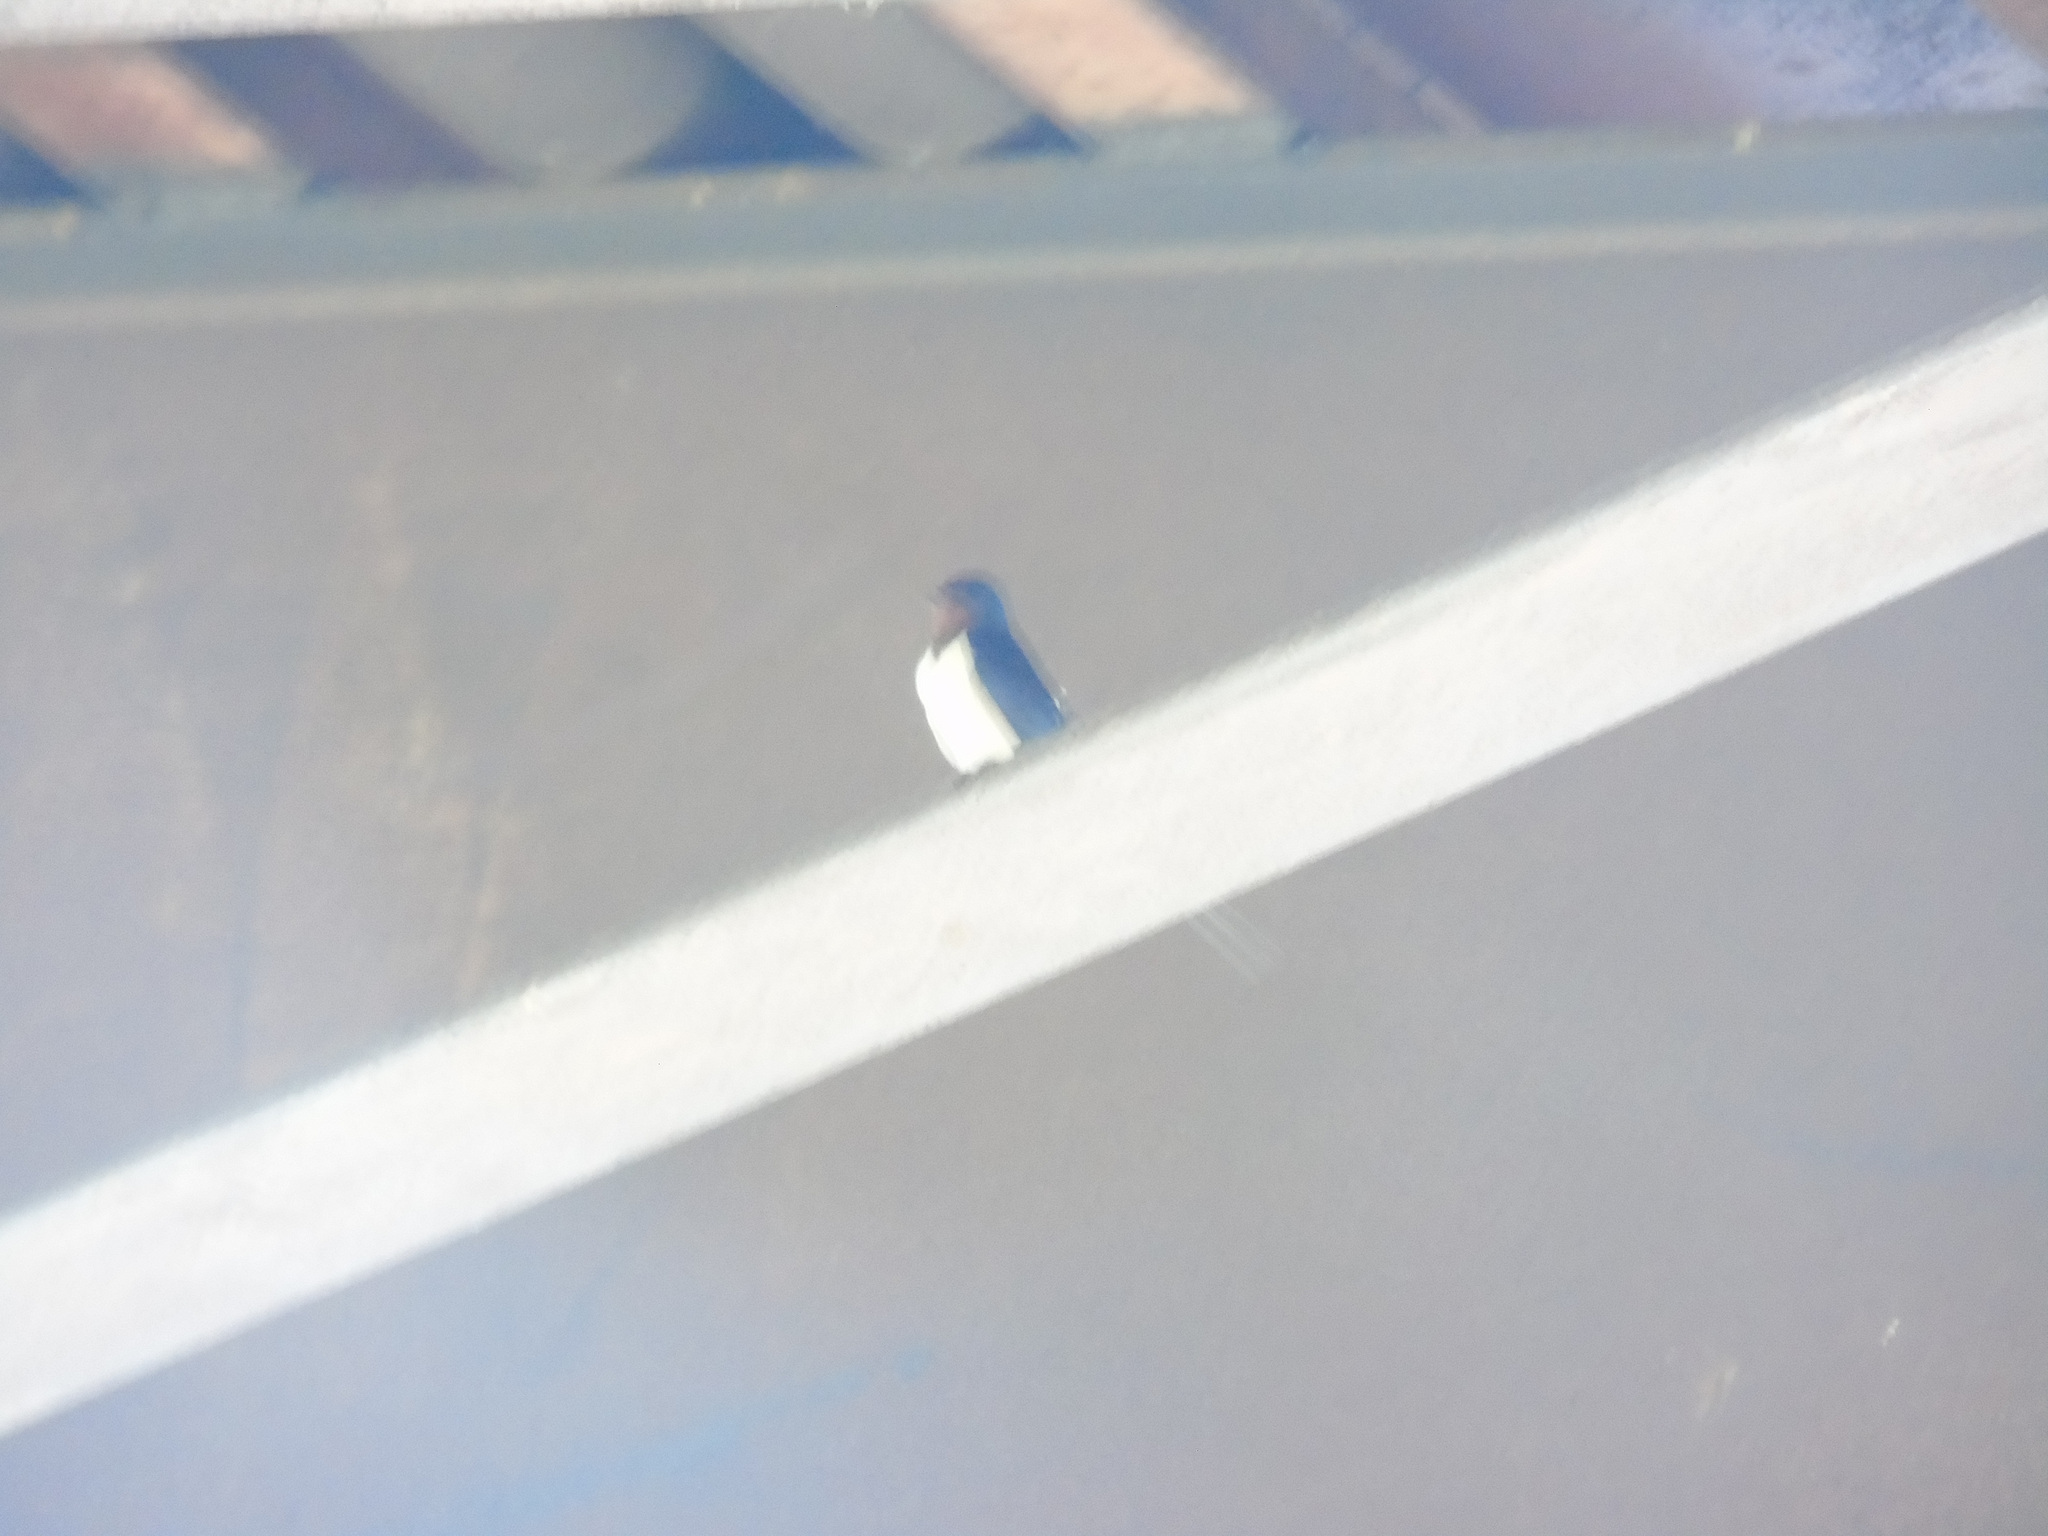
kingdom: Animalia
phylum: Chordata
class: Aves
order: Passeriformes
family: Hirundinidae
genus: Hirundo
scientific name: Hirundo rustica
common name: Barn swallow
